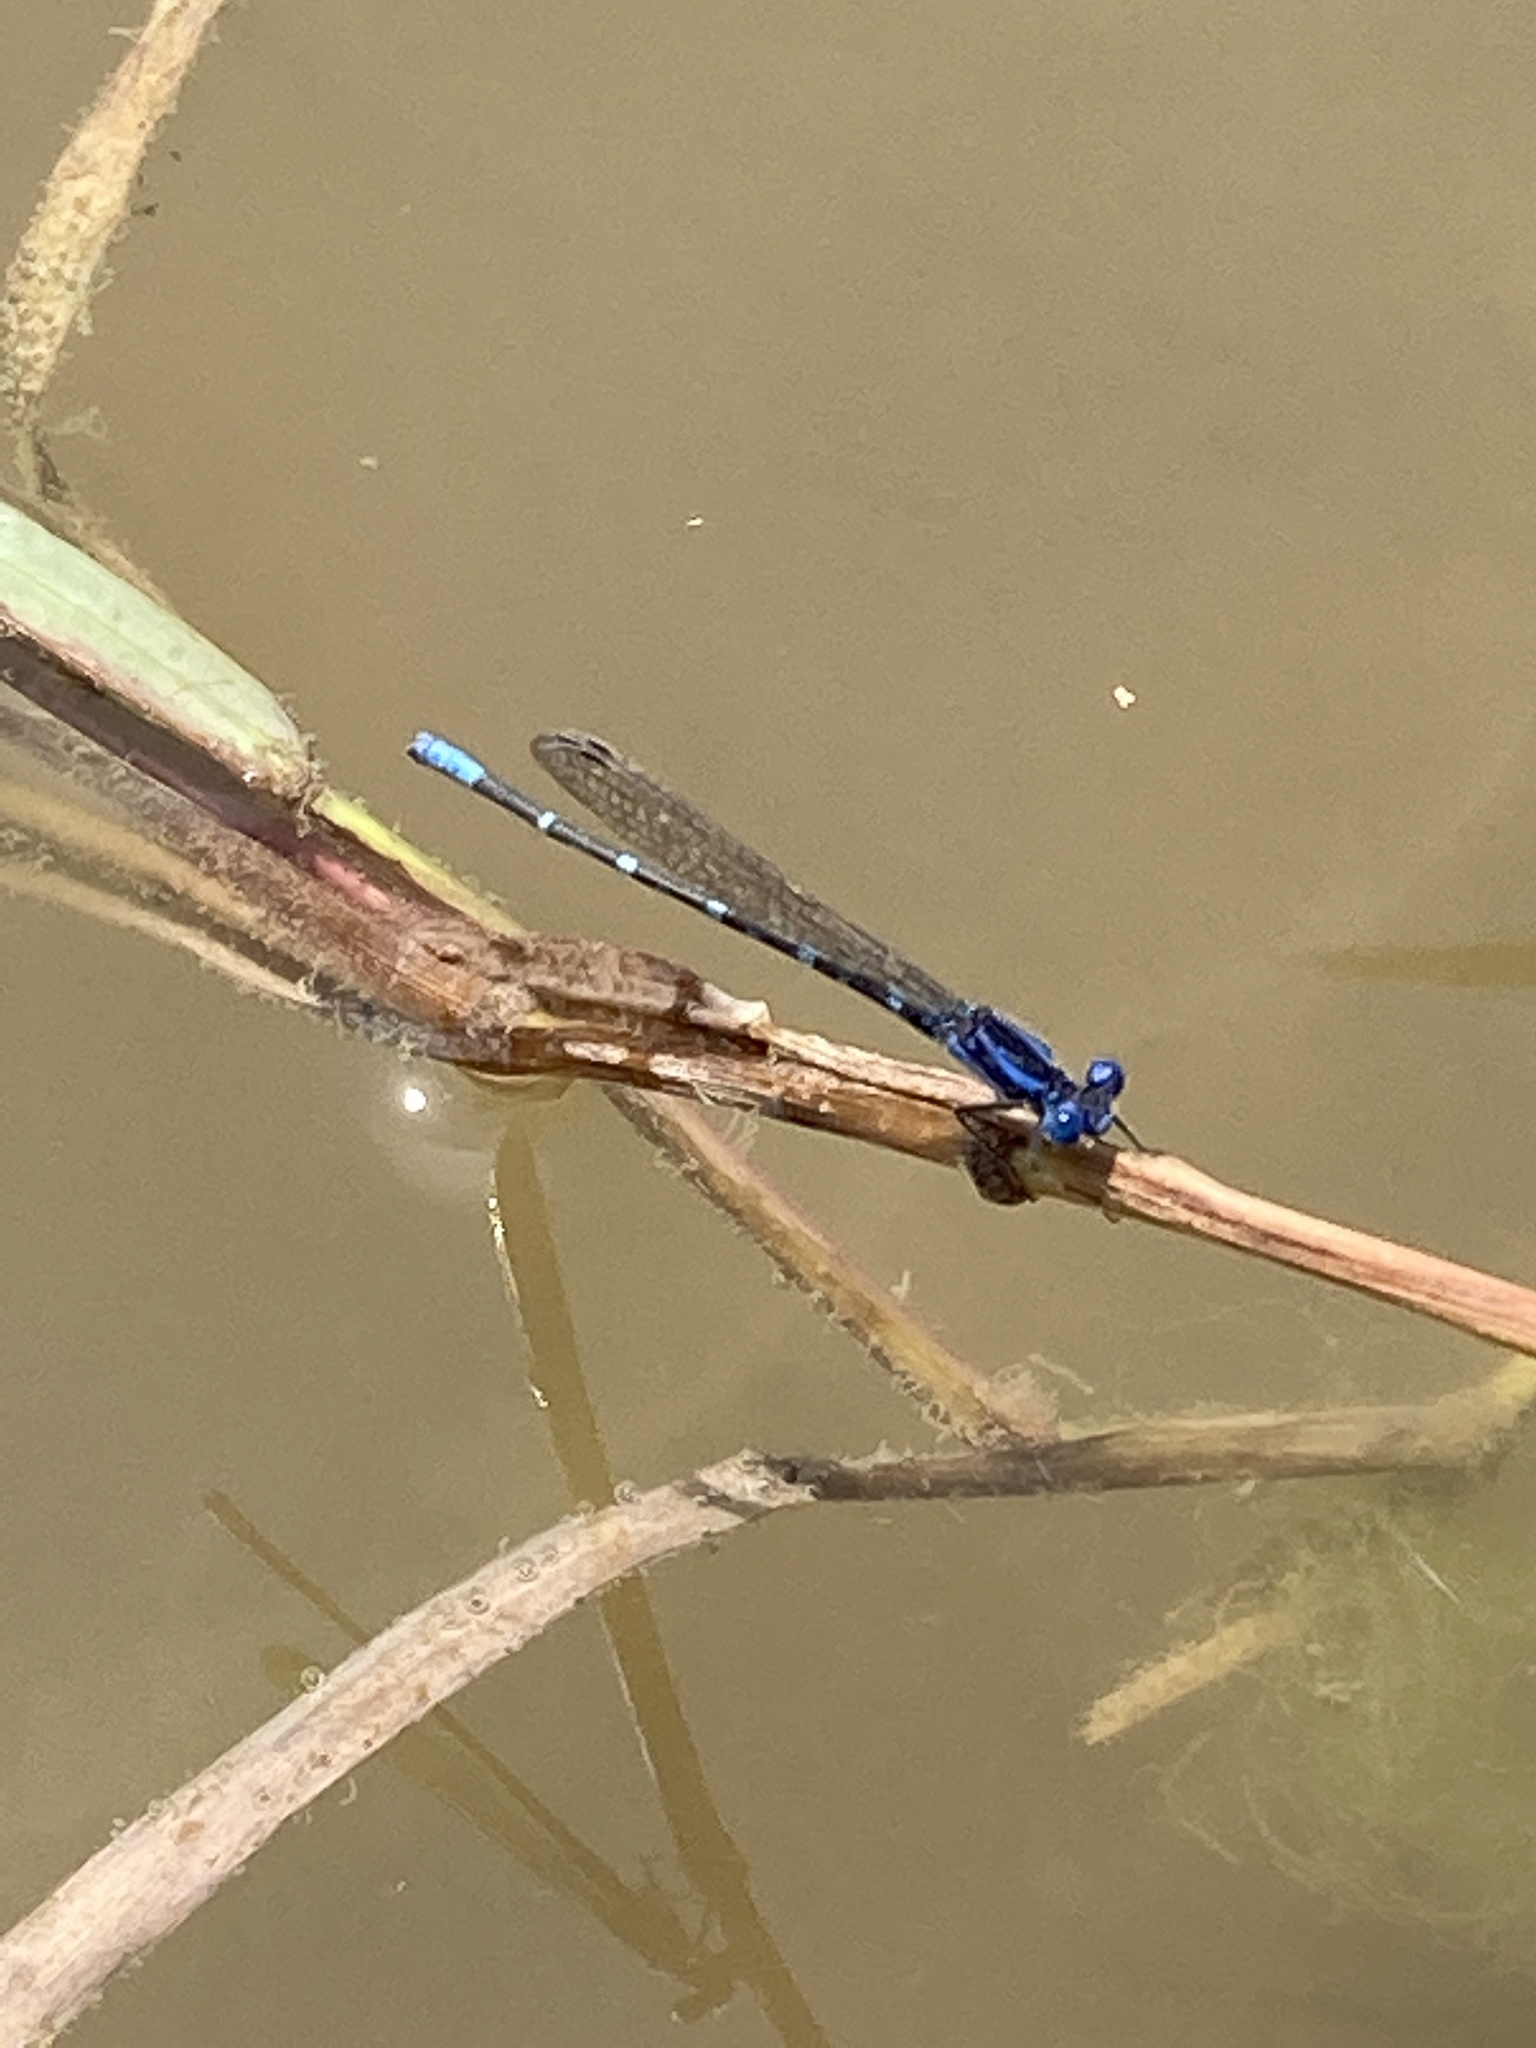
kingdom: Animalia
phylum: Arthropoda
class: Insecta
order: Odonata
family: Coenagrionidae
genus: Argia
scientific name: Argia sedula
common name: Blue-ringed dancer
